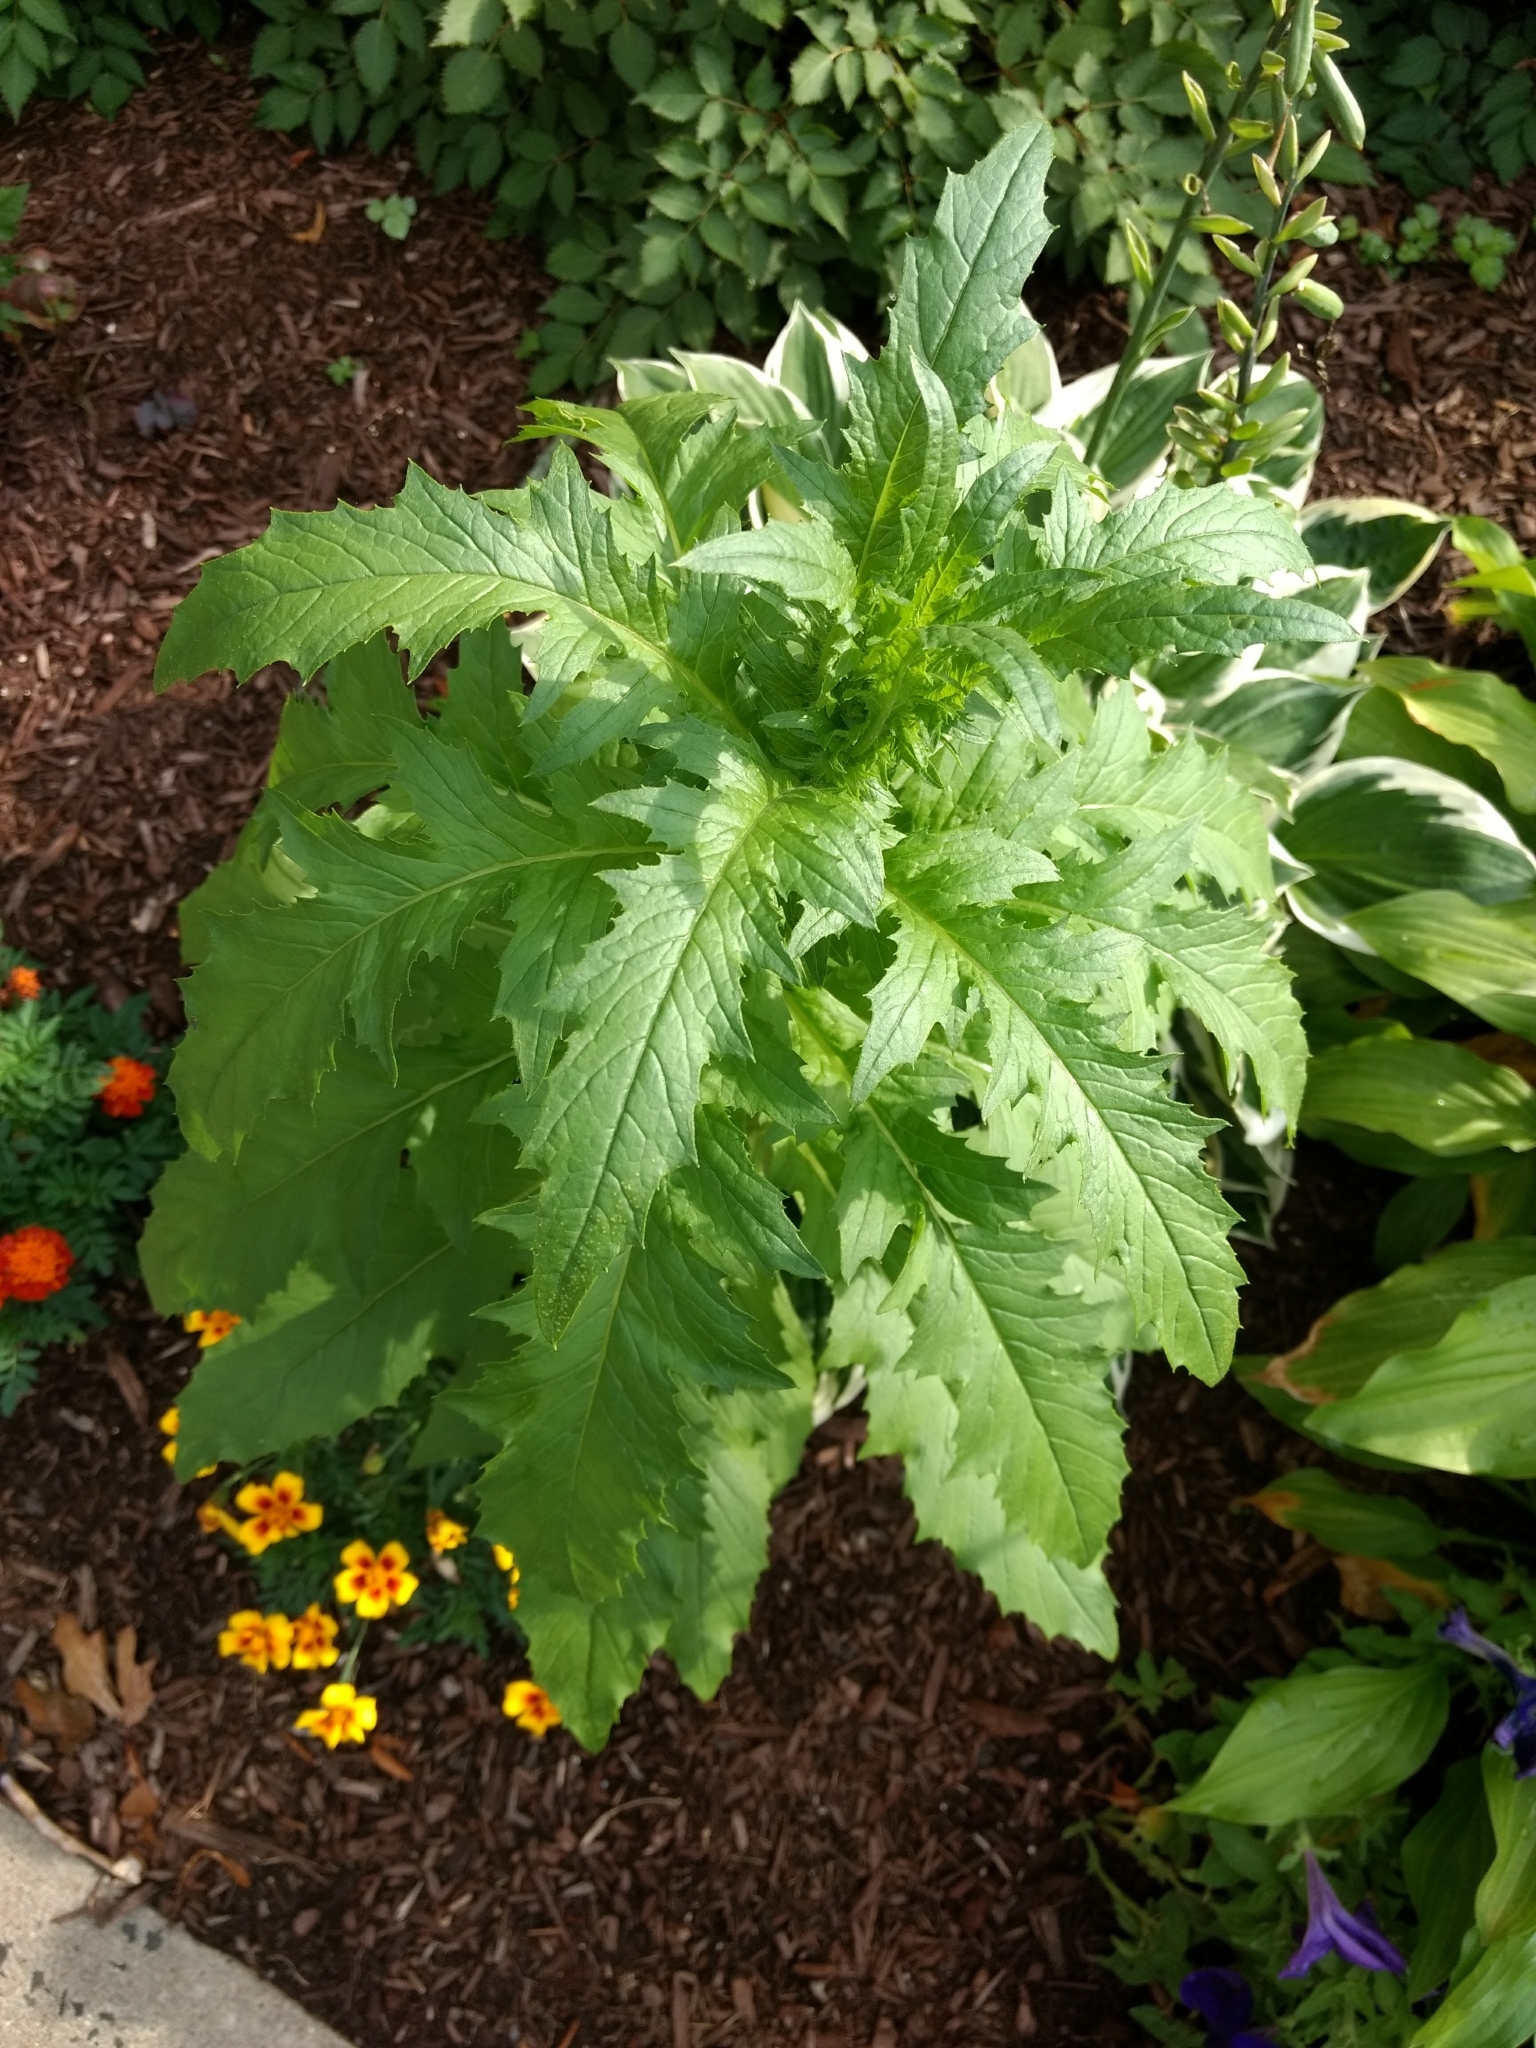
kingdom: Plantae
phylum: Tracheophyta
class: Magnoliopsida
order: Asterales
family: Asteraceae
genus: Erechtites
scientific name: Erechtites hieraciifolius
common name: American burnweed
